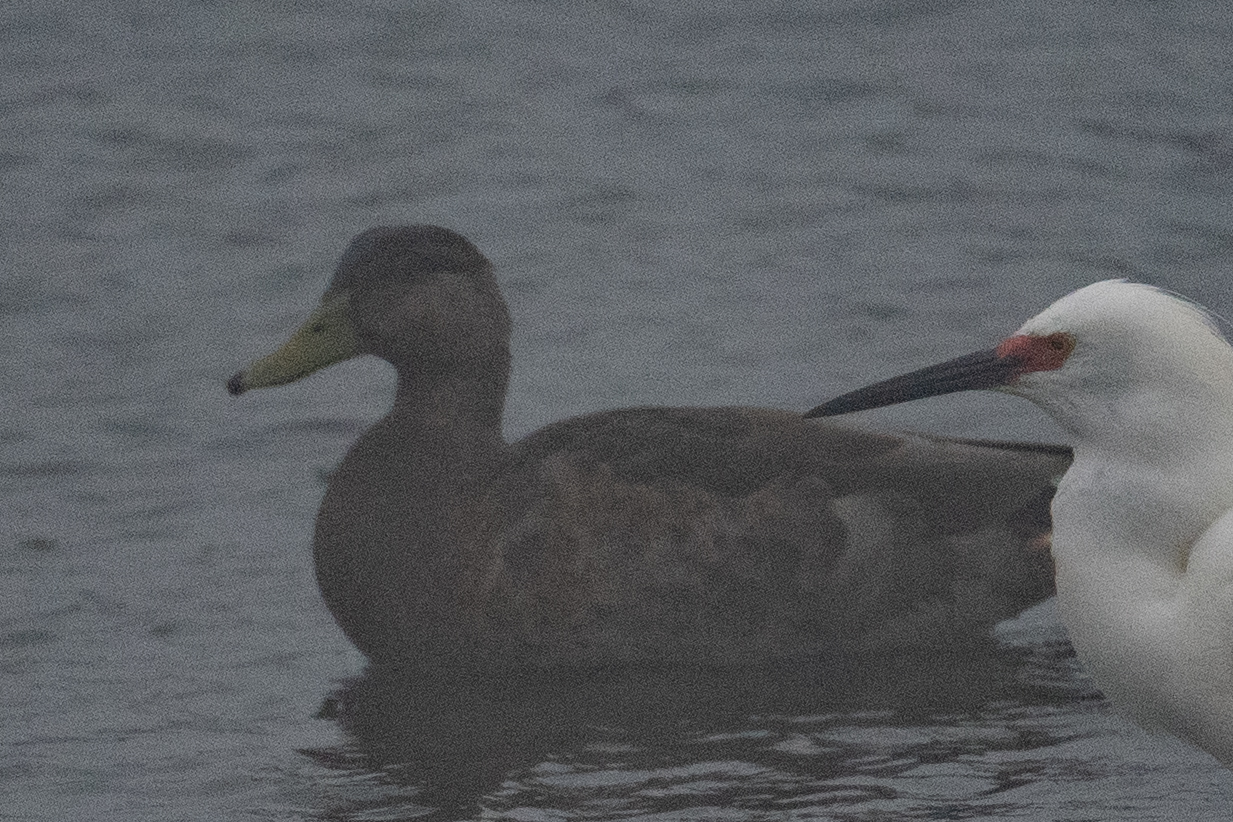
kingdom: Animalia
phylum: Chordata
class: Aves
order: Anseriformes
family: Anatidae
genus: Anas
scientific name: Anas platyrhynchos
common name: Mallard
